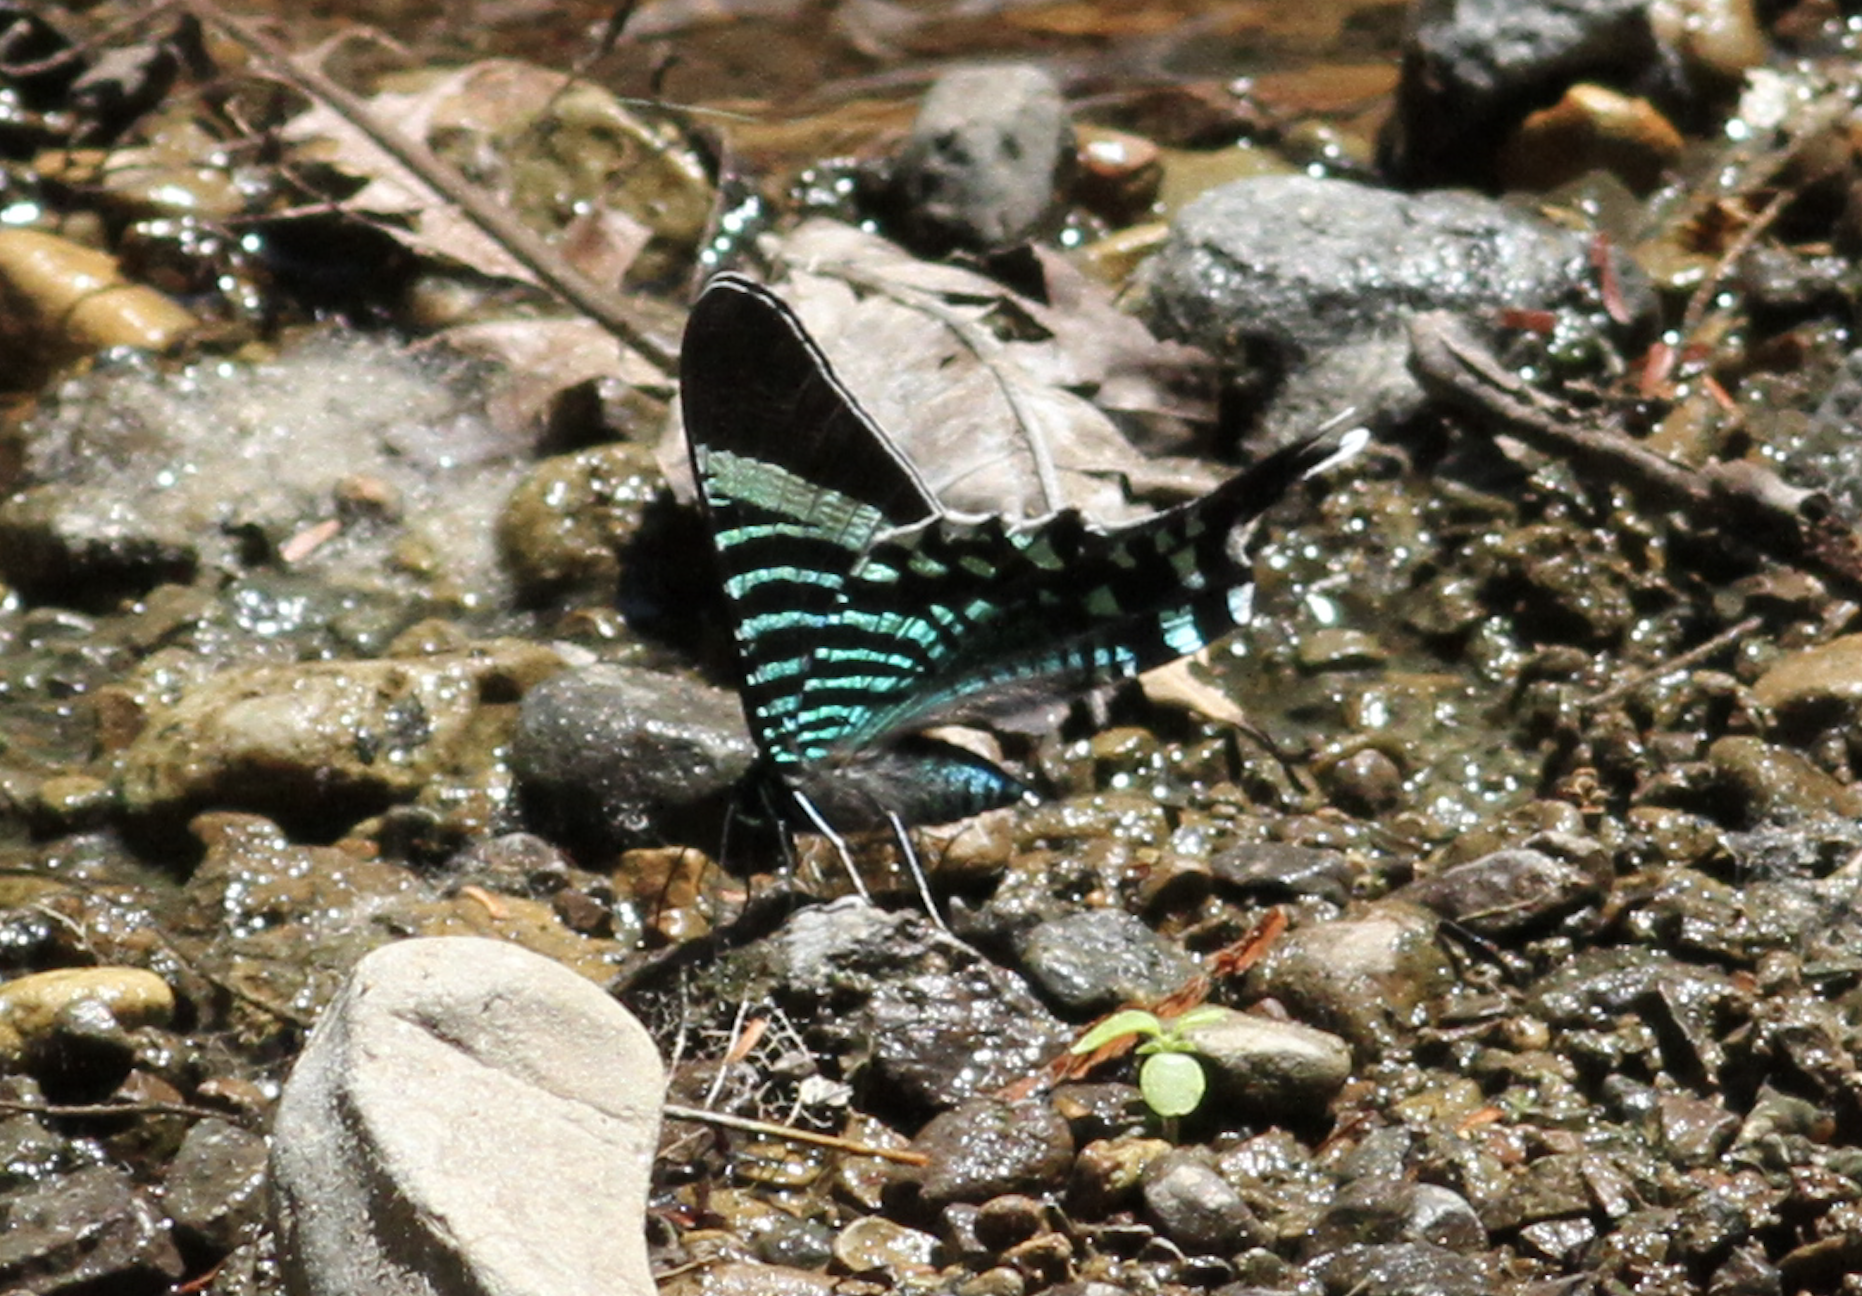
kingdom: Animalia
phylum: Arthropoda
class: Insecta
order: Lepidoptera
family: Uraniidae
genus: Urania
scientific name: Urania fulgens
